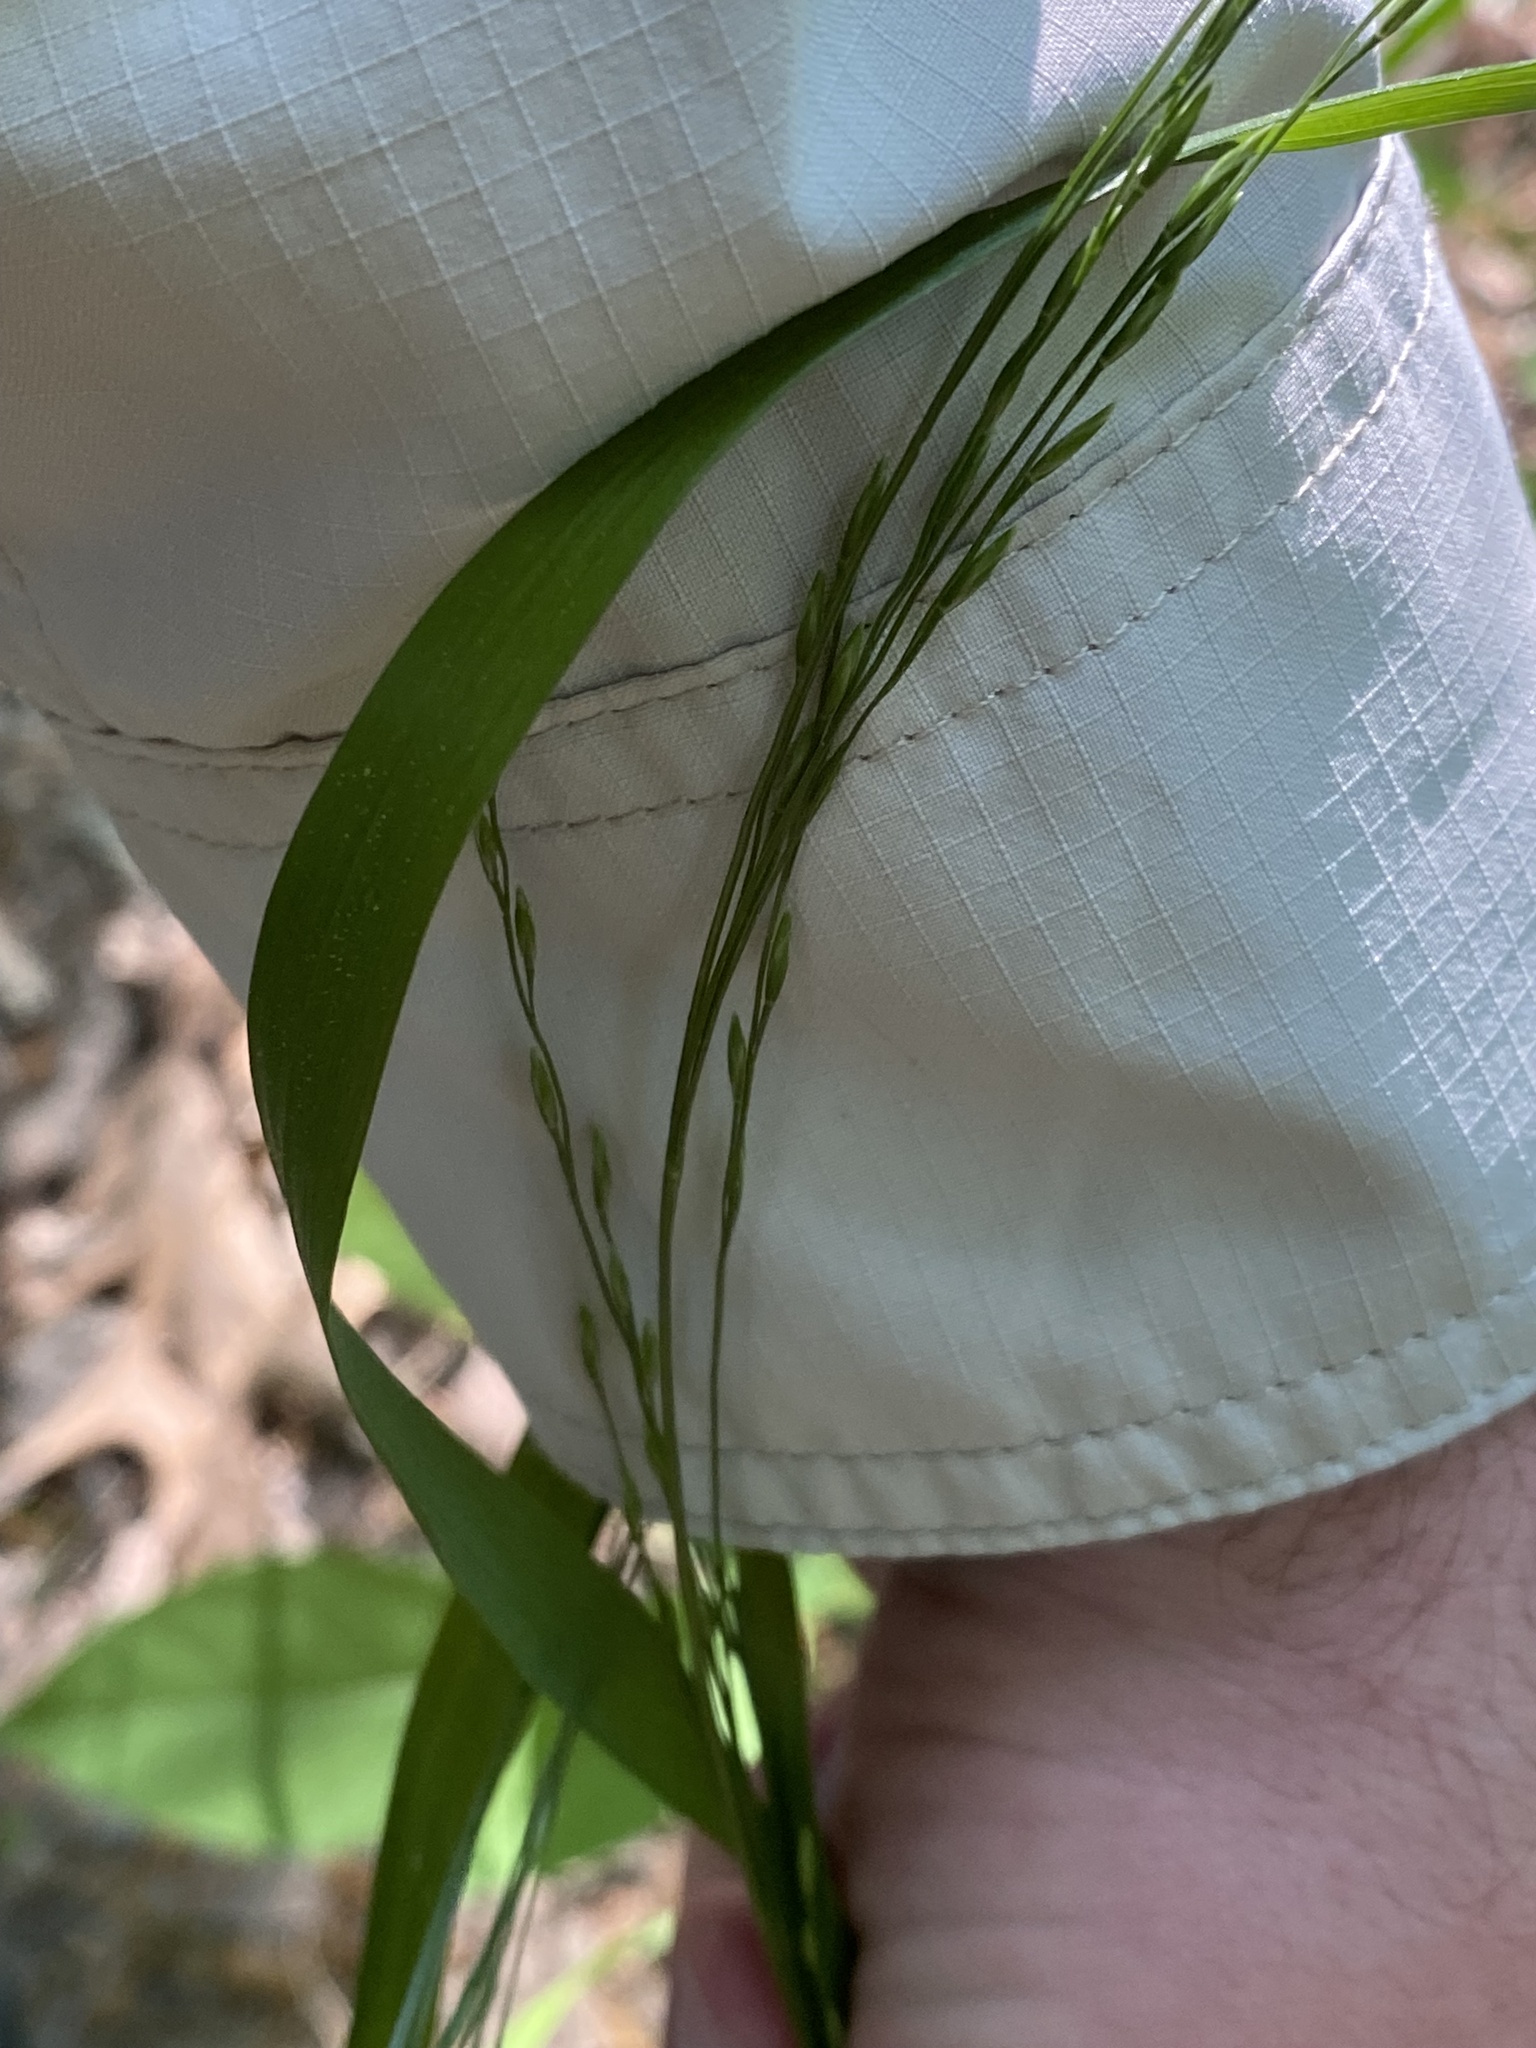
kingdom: Plantae
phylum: Tracheophyta
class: Liliopsida
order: Poales
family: Poaceae
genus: Festuca
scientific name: Festuca subverticillata
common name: Nodding fescue
